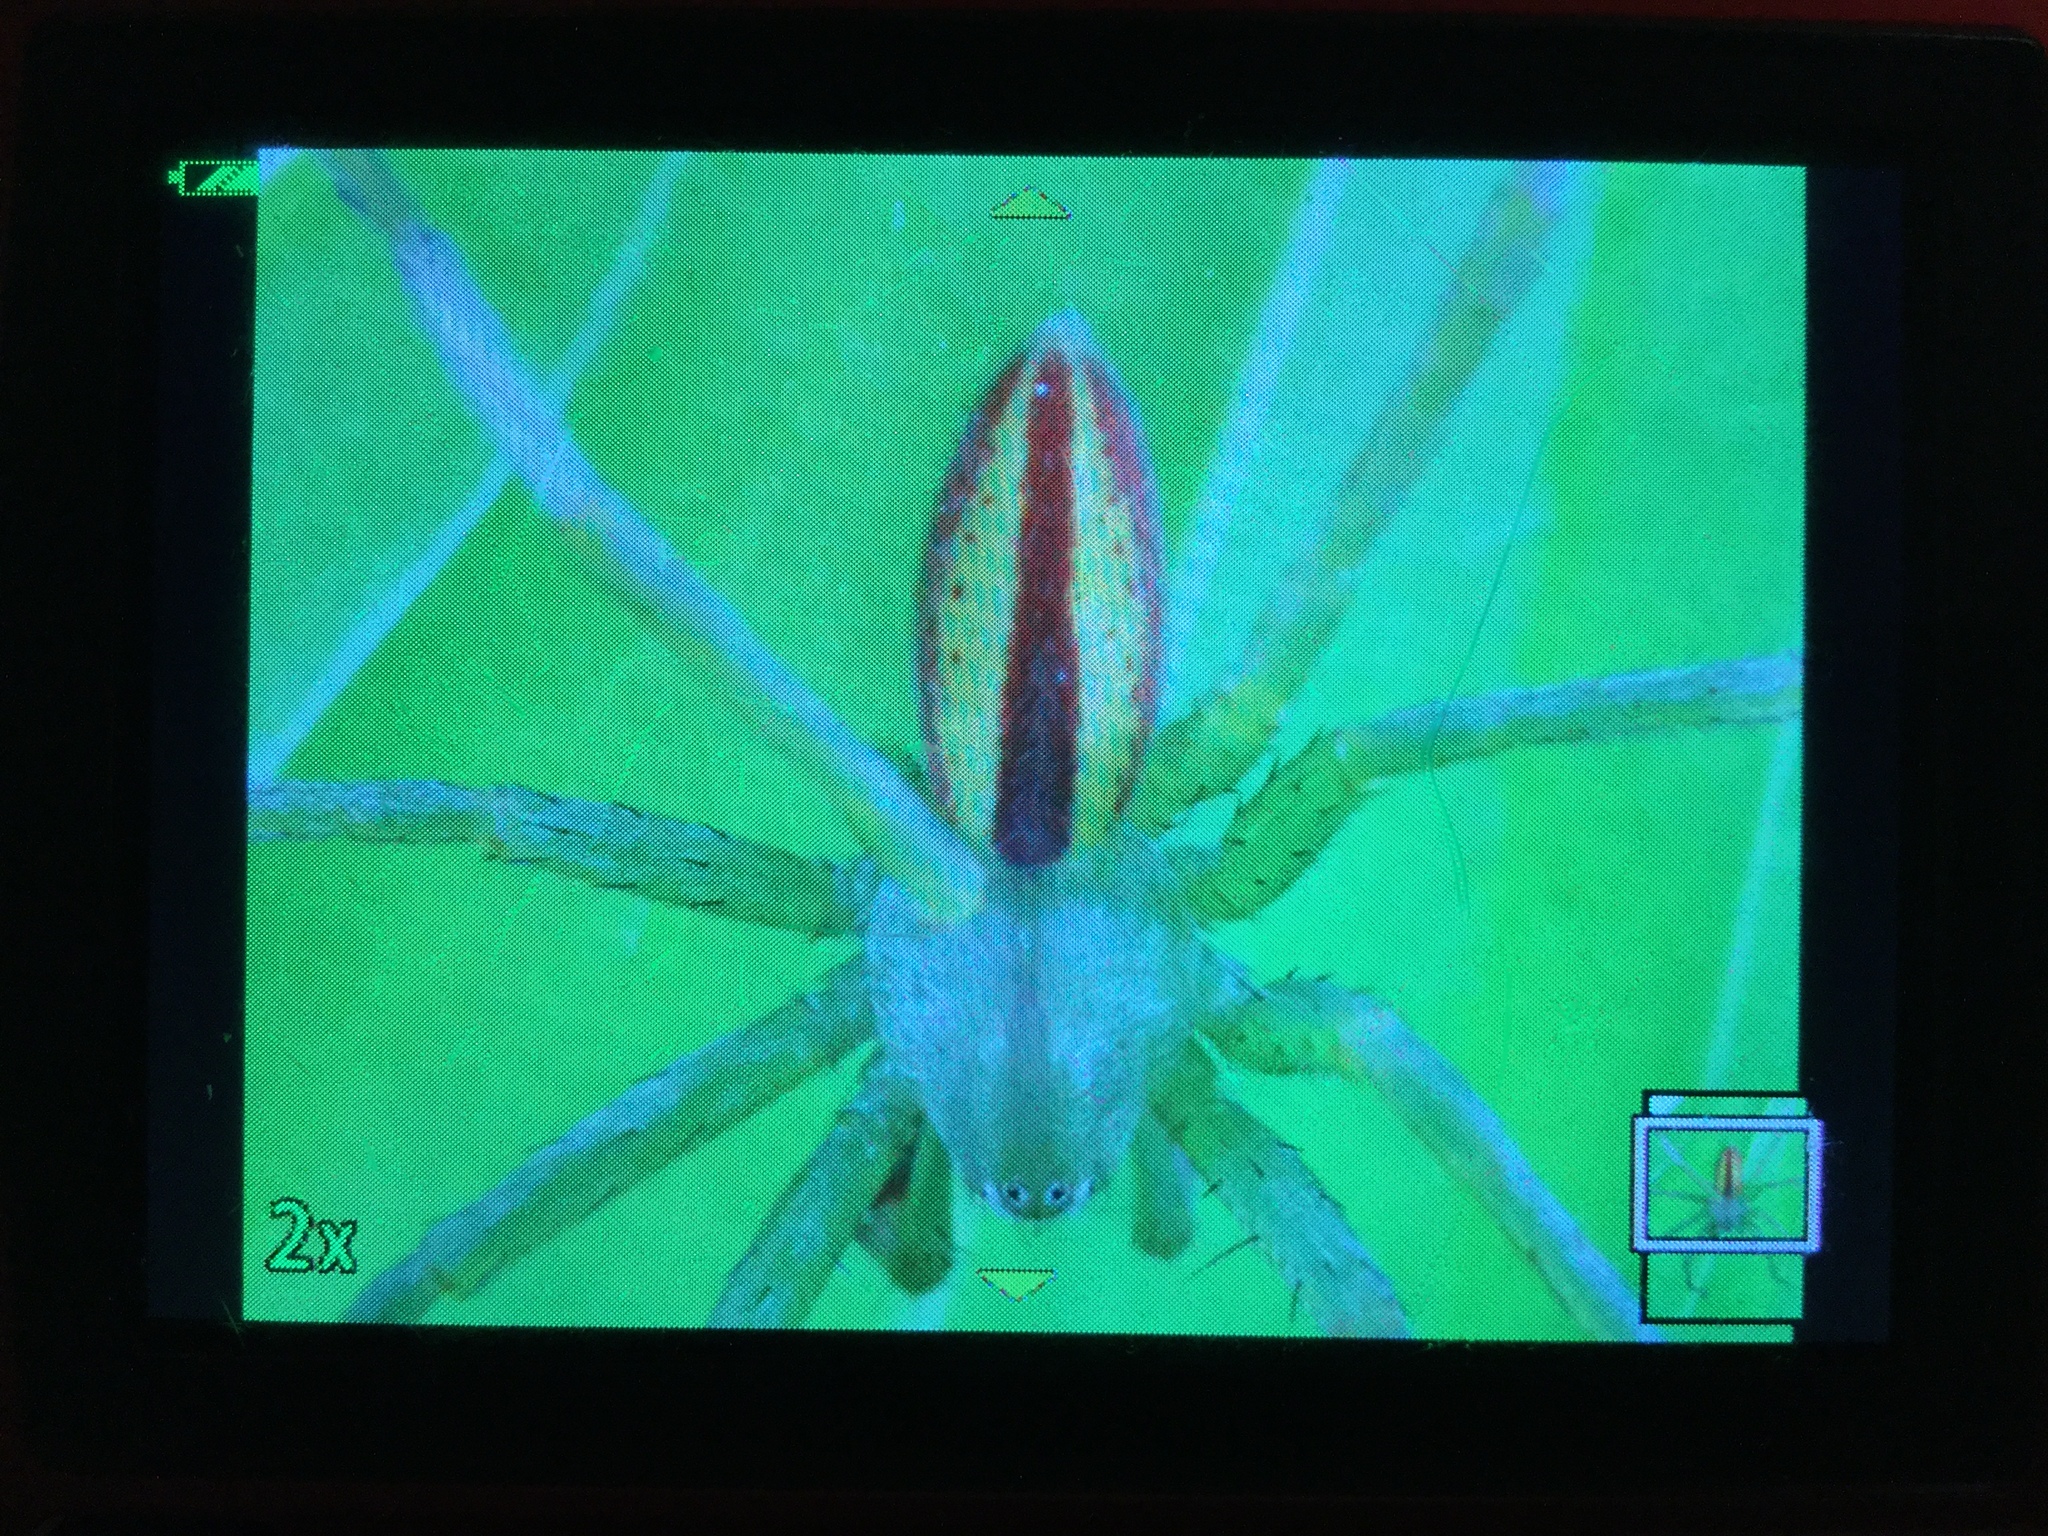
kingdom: Animalia
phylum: Arthropoda
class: Arachnida
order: Araneae
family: Sparassidae
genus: Micrommata
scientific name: Micrommata virescens
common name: Green spider
